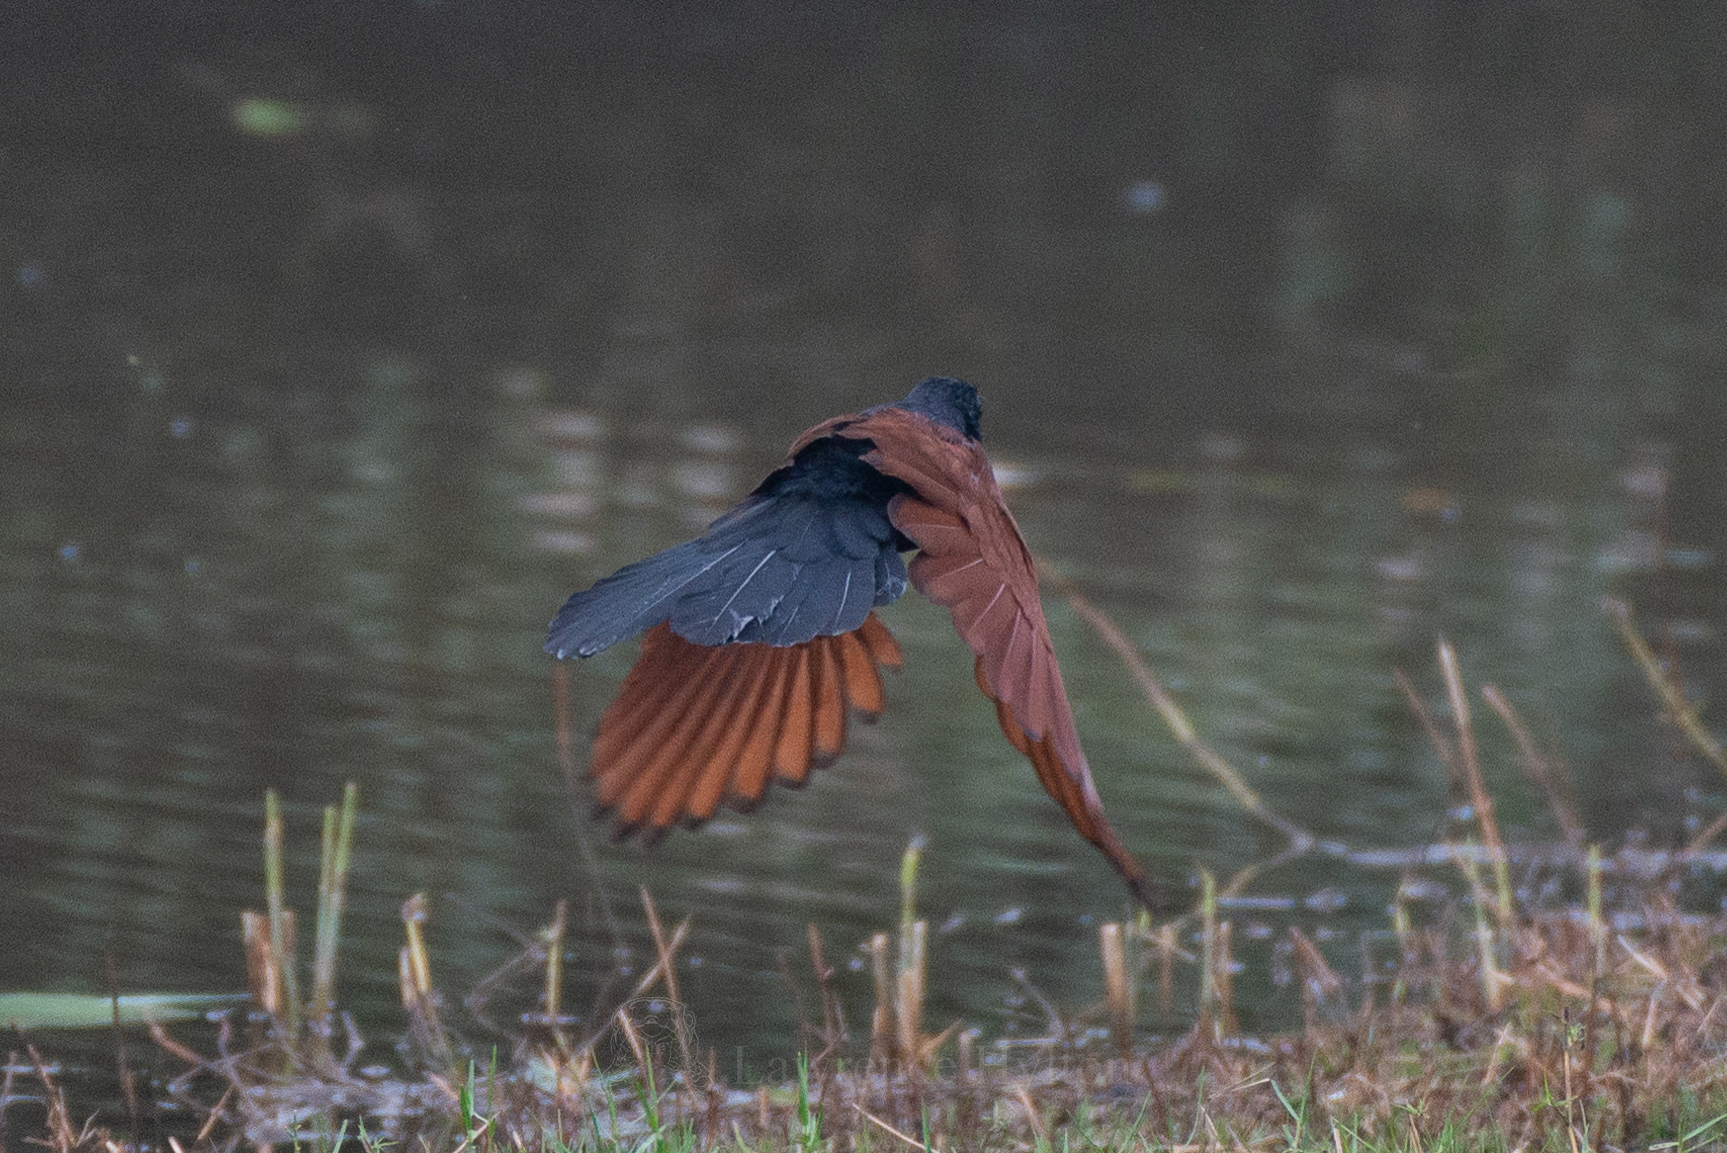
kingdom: Animalia
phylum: Chordata
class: Aves
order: Cuculiformes
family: Cuculidae
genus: Centropus
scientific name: Centropus sinensis
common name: Greater coucal
